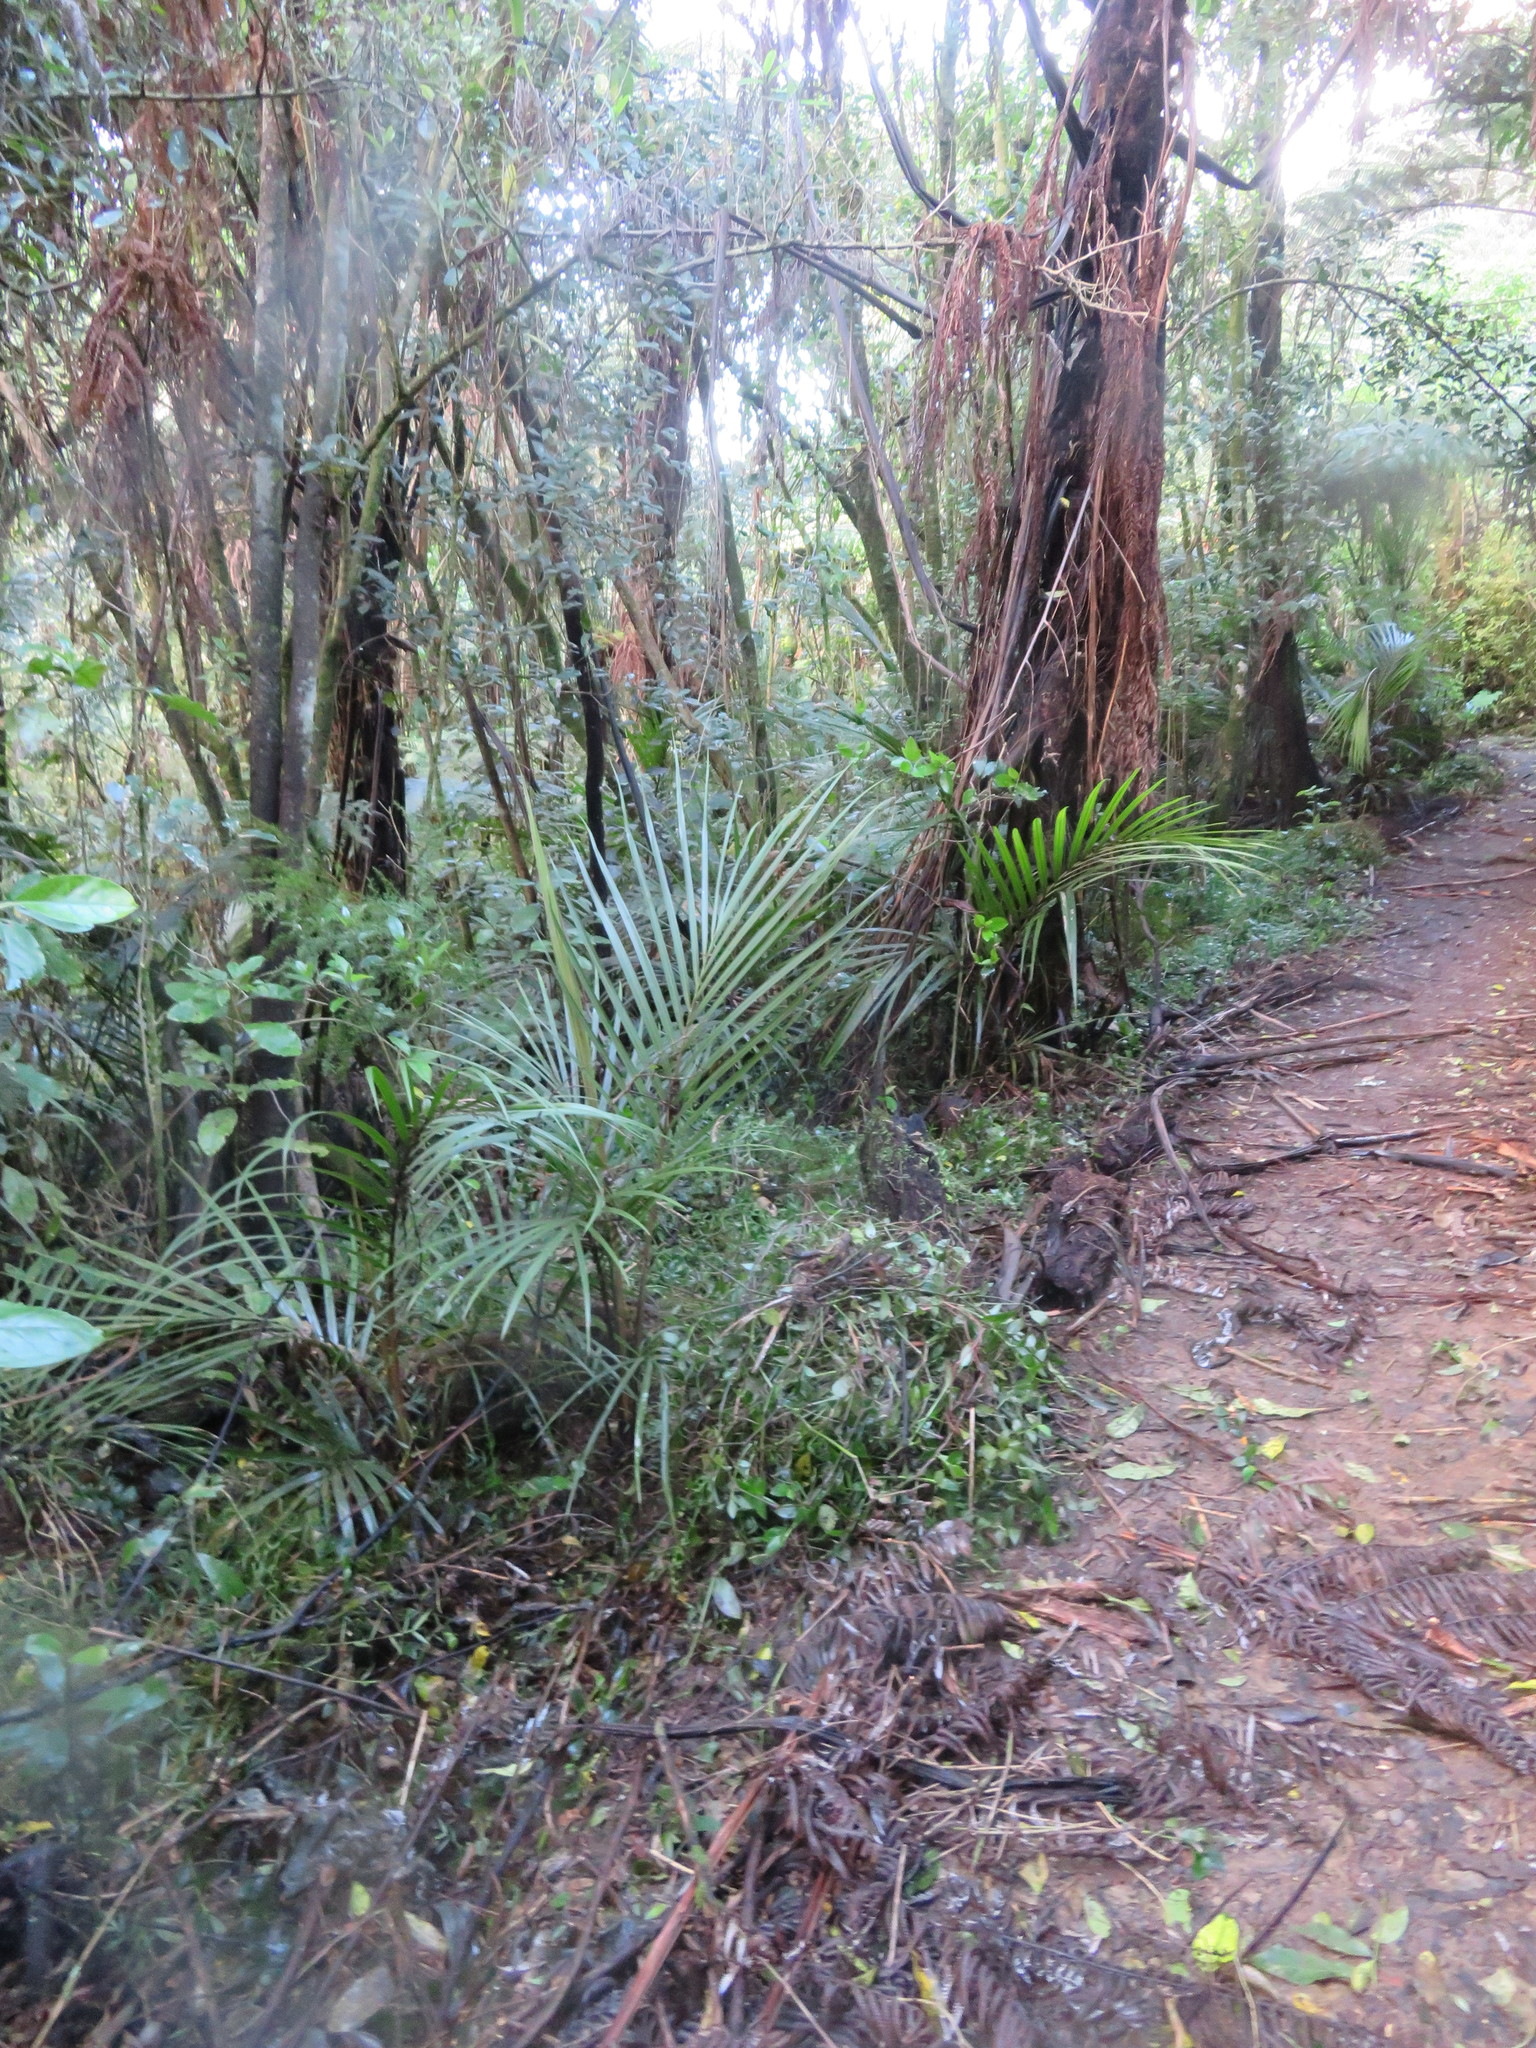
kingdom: Plantae
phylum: Tracheophyta
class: Liliopsida
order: Arecales
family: Arecaceae
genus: Rhopalostylis
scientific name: Rhopalostylis sapida
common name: Feather-duster palm
